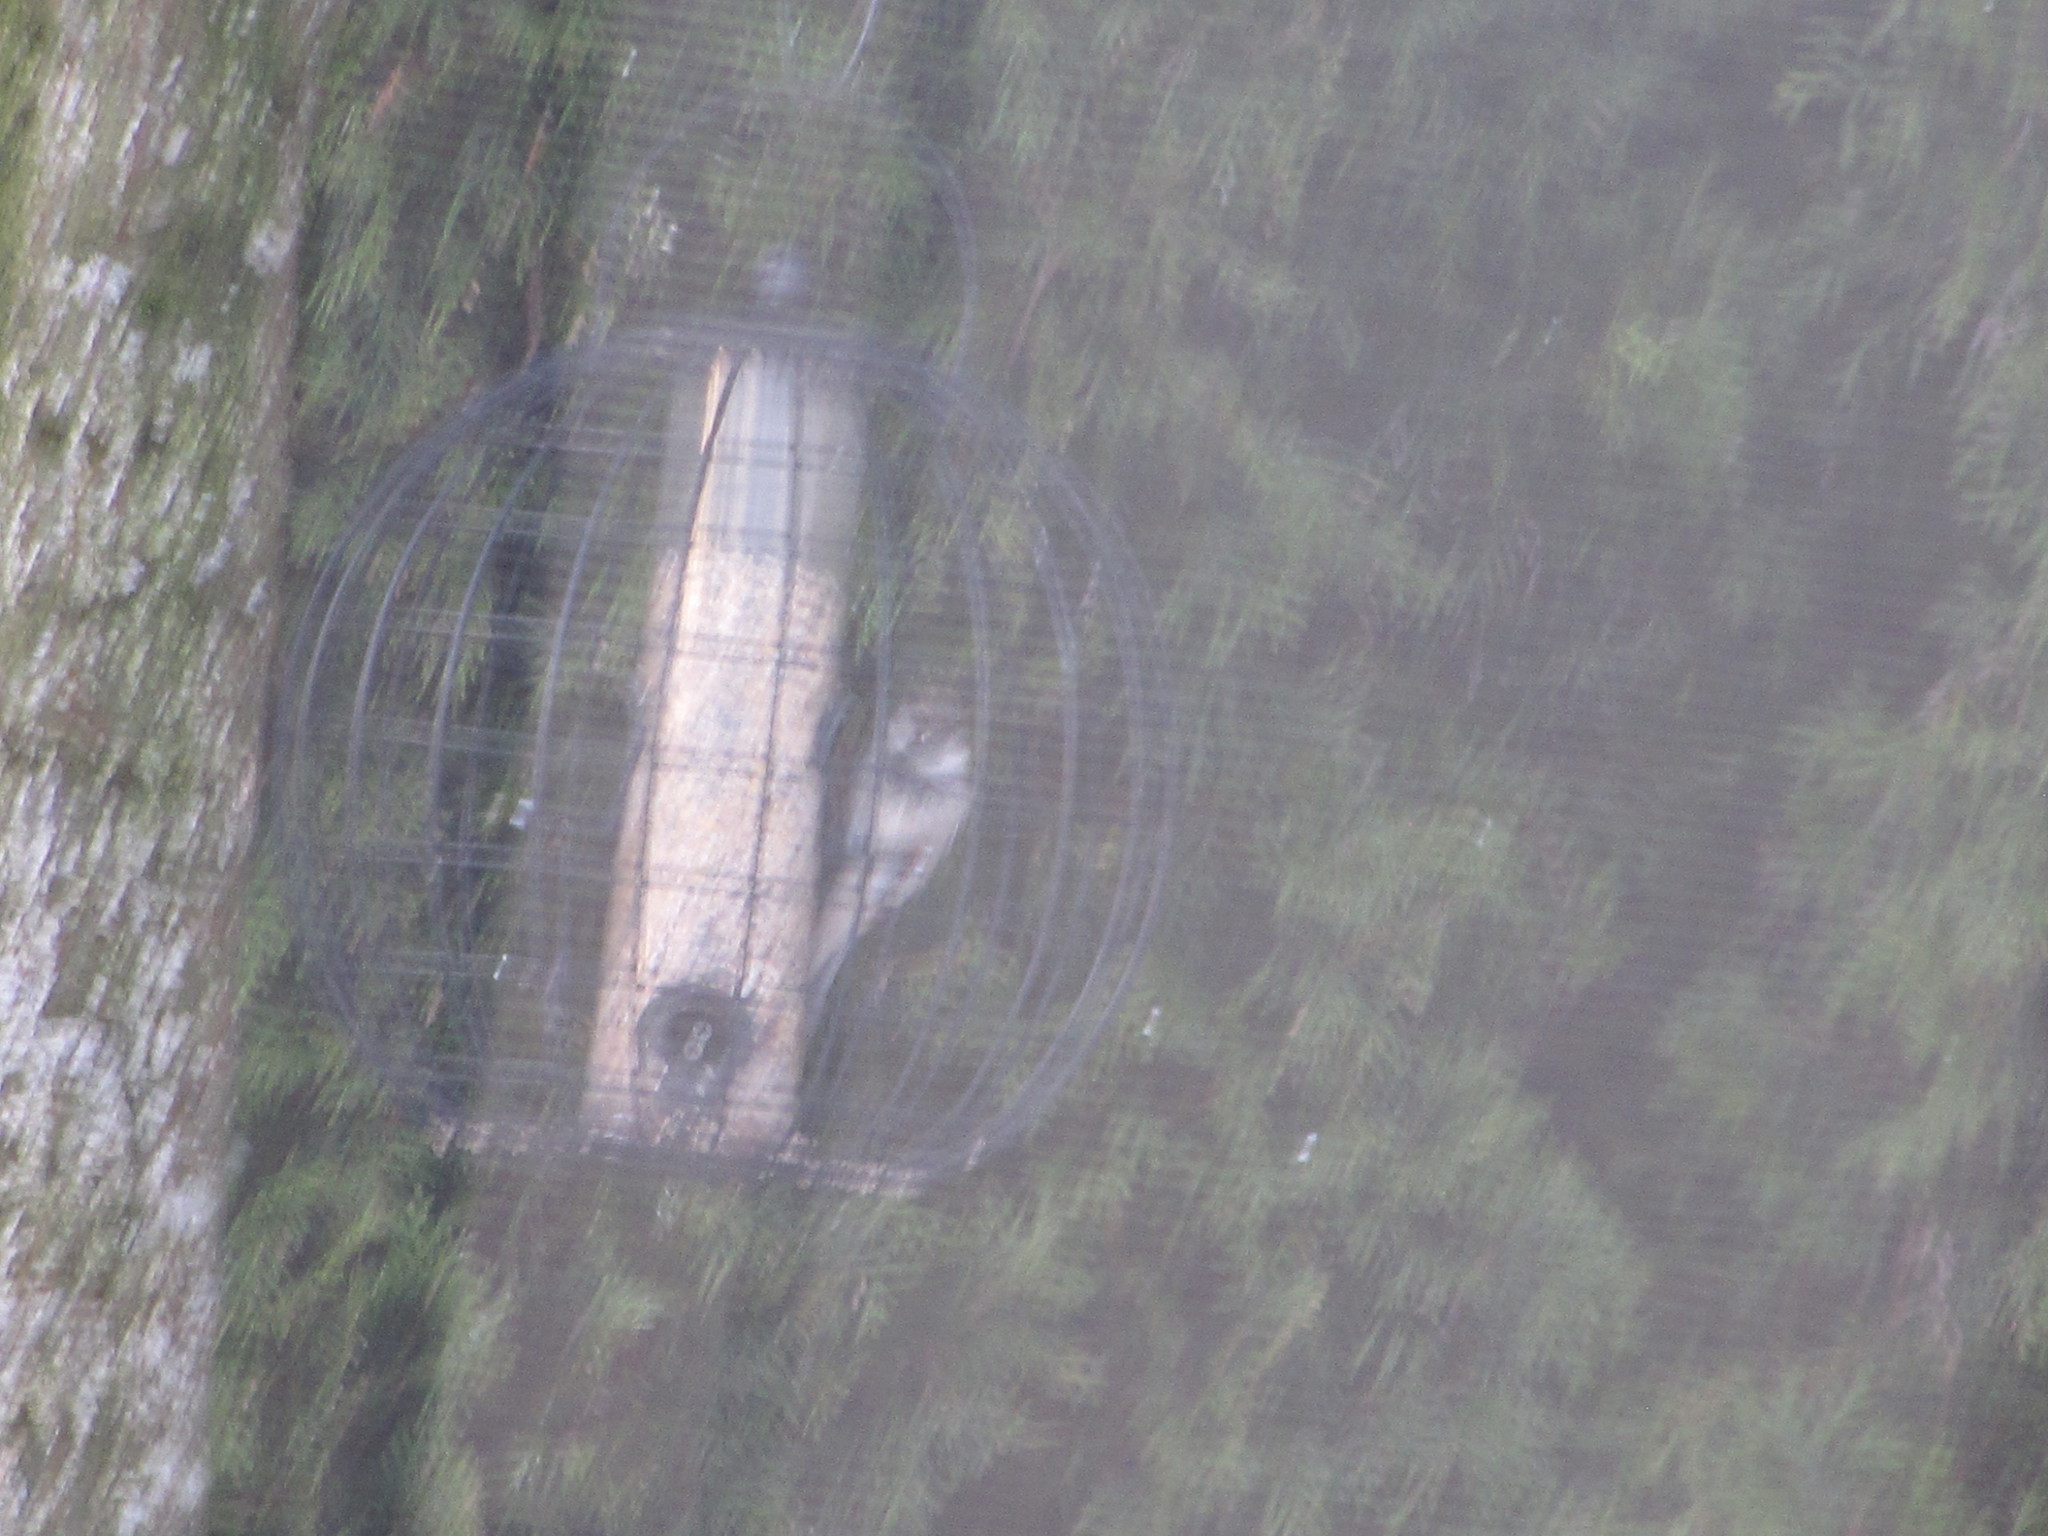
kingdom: Animalia
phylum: Chordata
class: Aves
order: Passeriformes
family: Passeridae
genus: Passer
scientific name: Passer domesticus
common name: House sparrow
